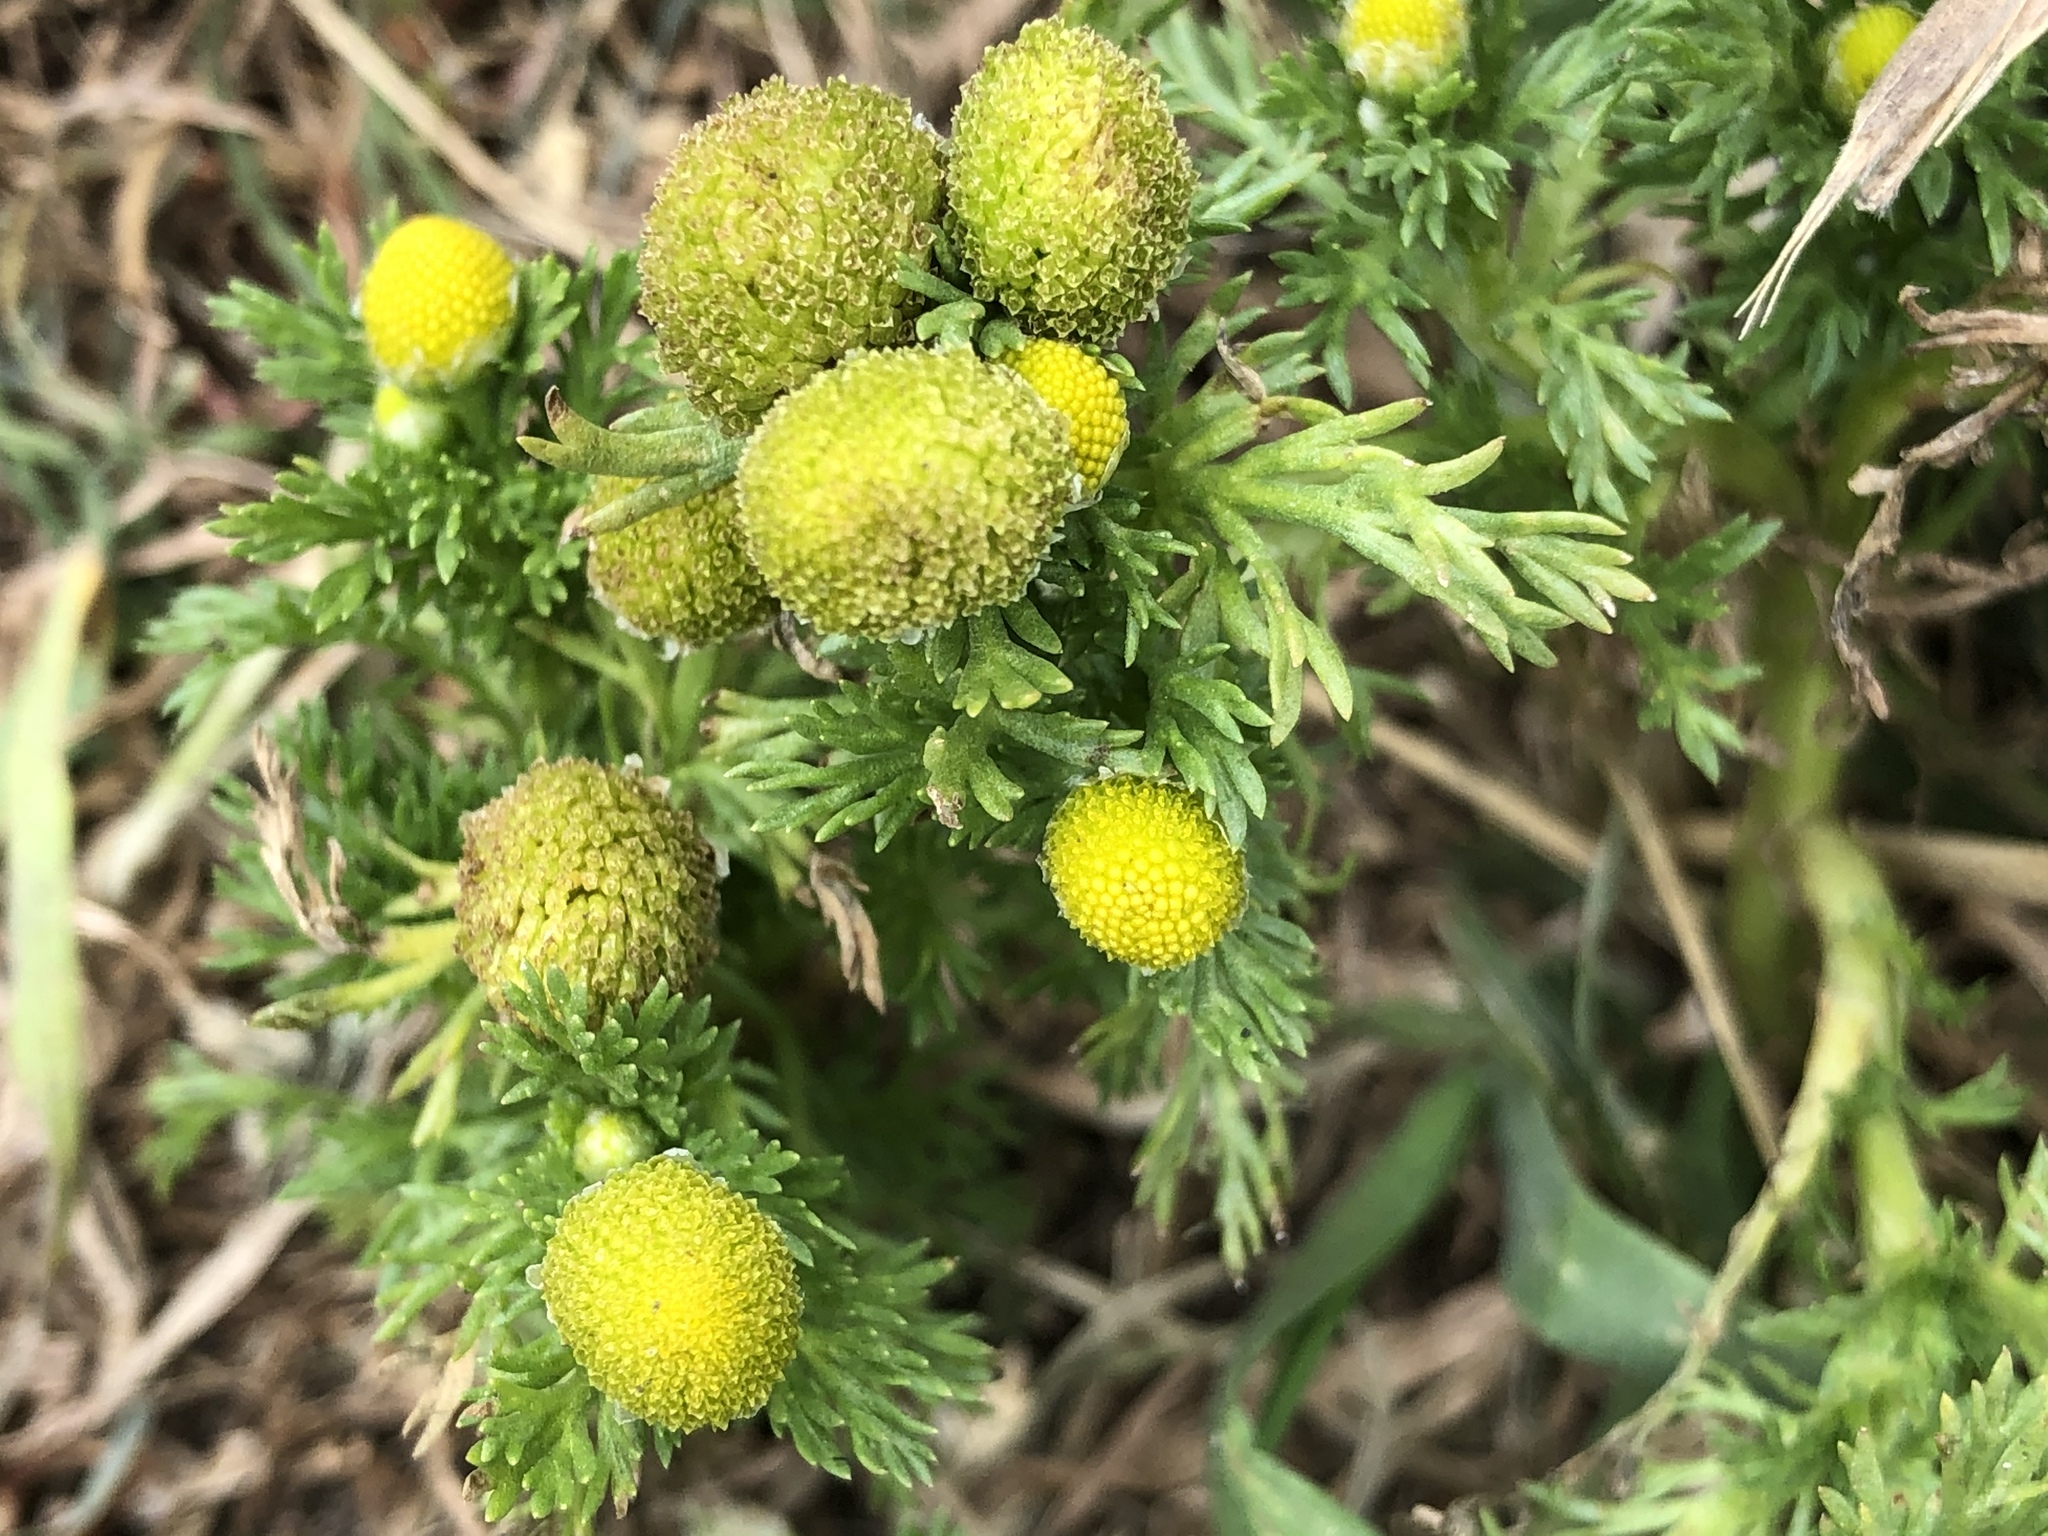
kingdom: Plantae
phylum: Tracheophyta
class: Magnoliopsida
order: Asterales
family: Asteraceae
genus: Matricaria
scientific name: Matricaria discoidea
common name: Disc mayweed
